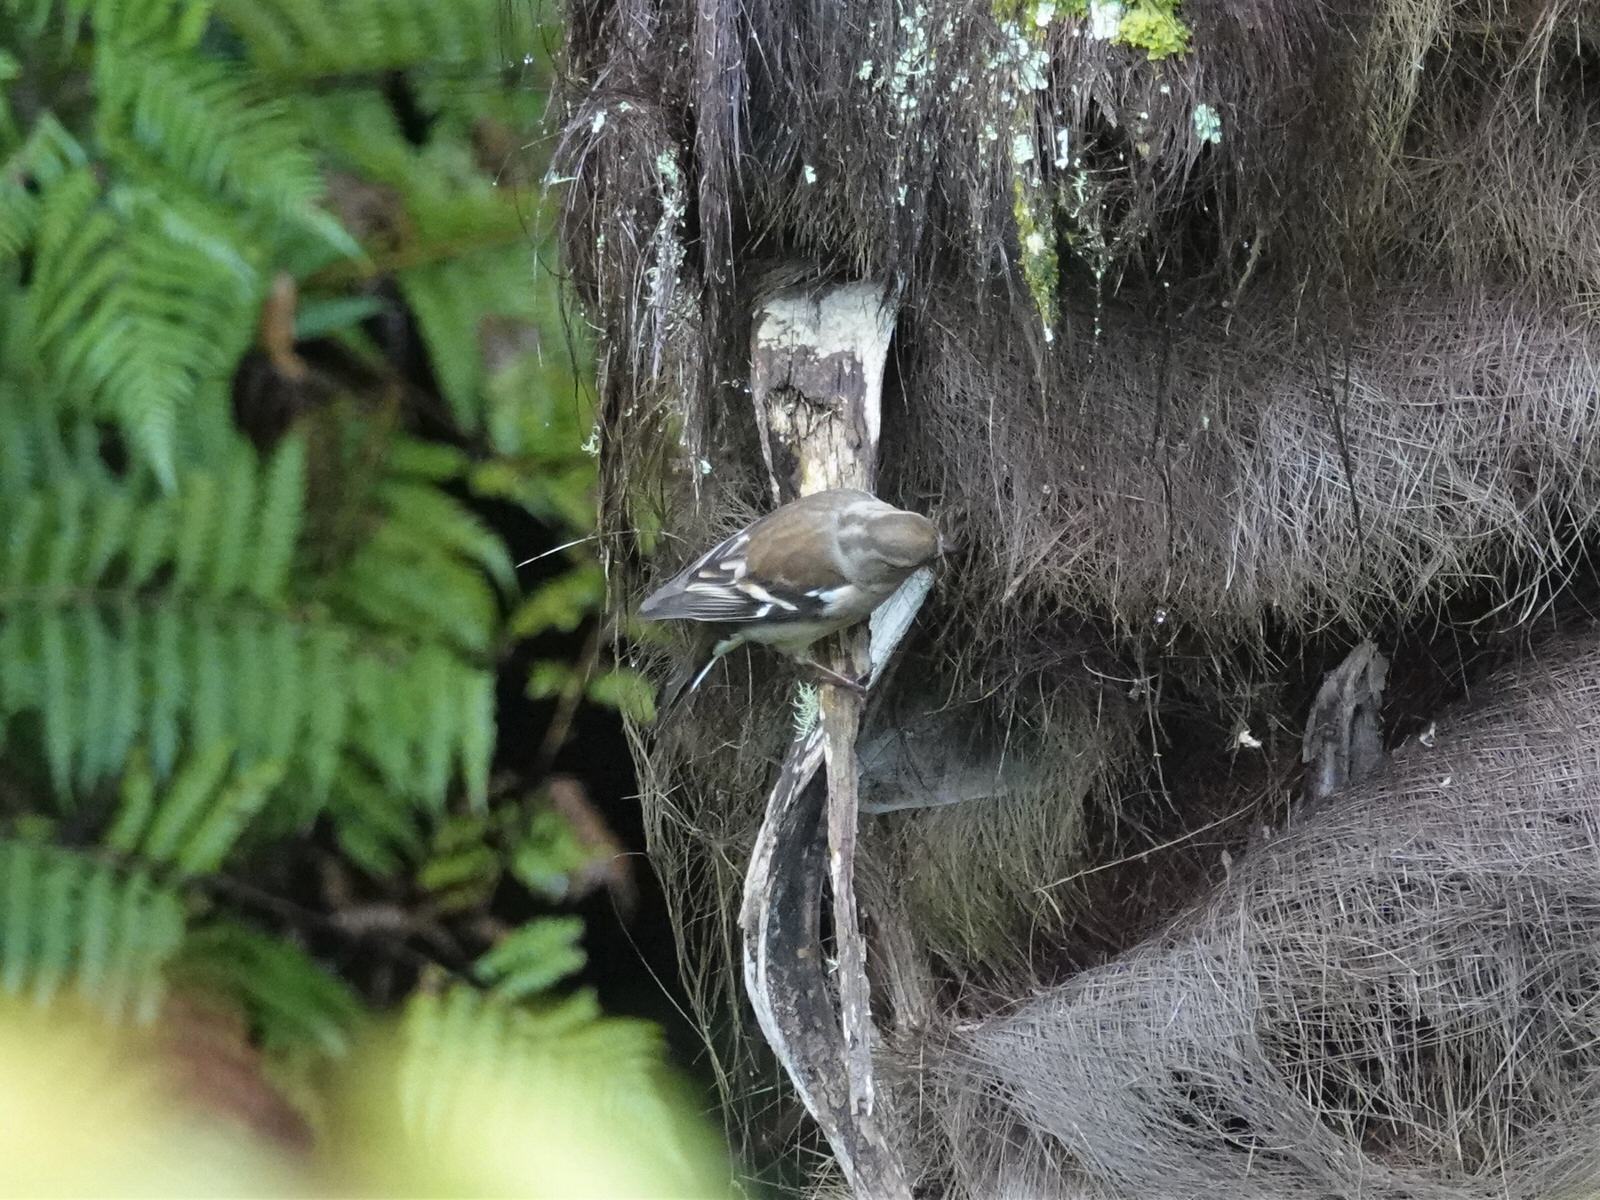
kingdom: Animalia
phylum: Chordata
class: Aves
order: Passeriformes
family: Fringillidae
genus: Fringilla
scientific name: Fringilla coelebs
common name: Common chaffinch
